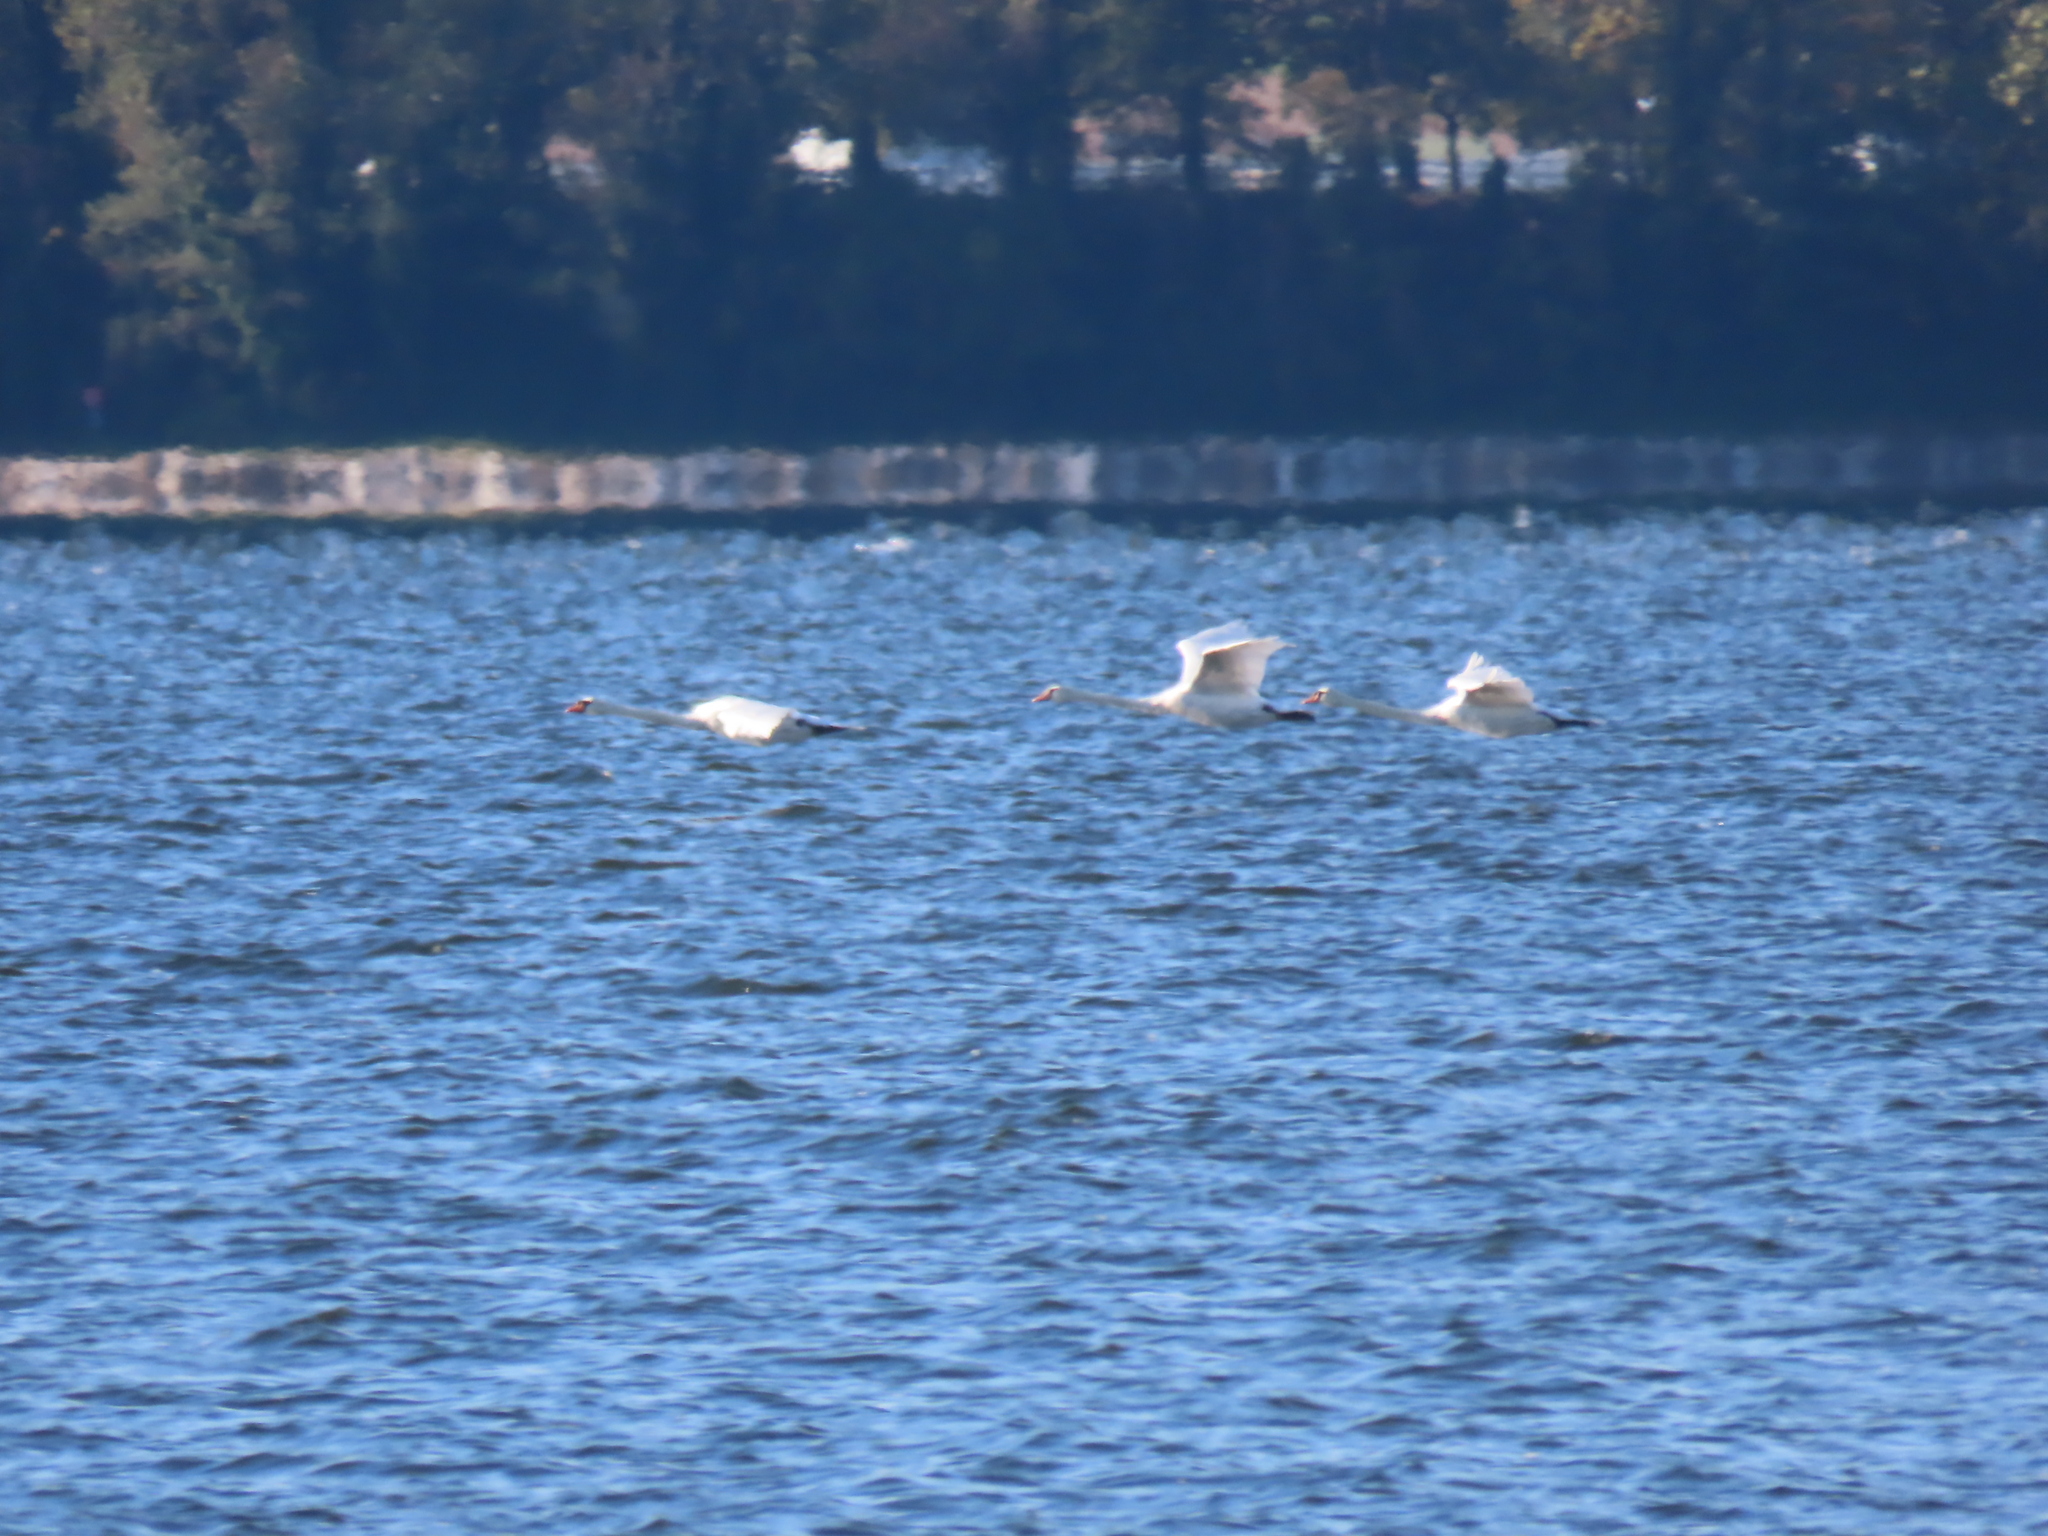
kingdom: Animalia
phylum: Chordata
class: Aves
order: Anseriformes
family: Anatidae
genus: Cygnus
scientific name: Cygnus olor
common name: Mute swan
